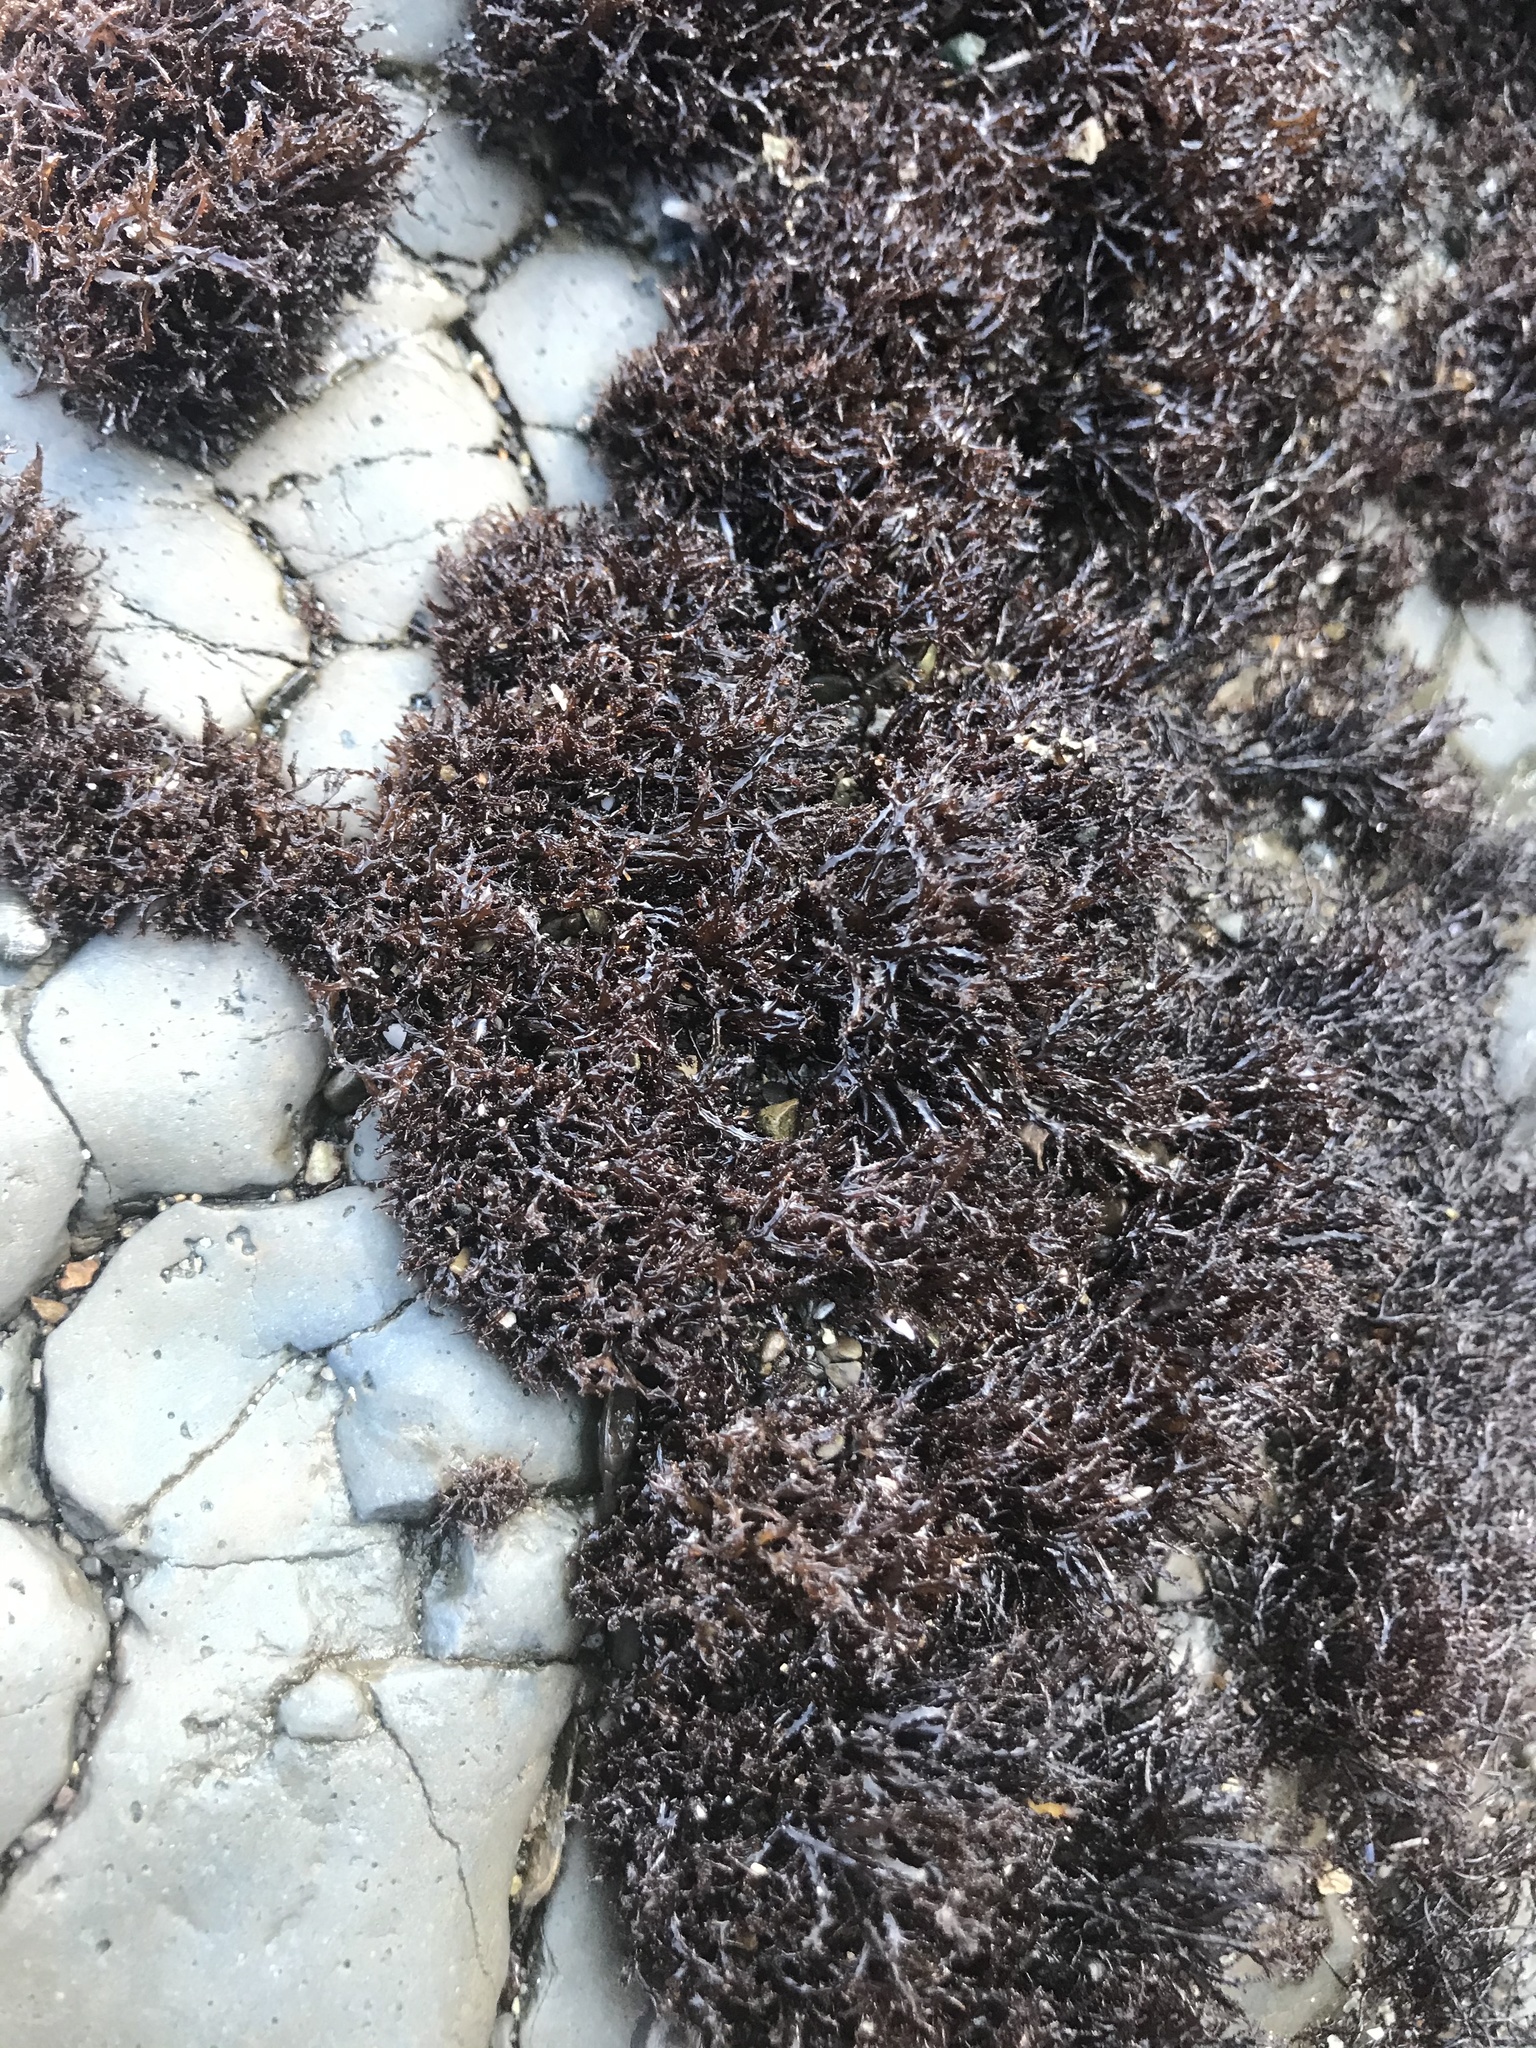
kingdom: Plantae
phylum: Rhodophyta
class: Florideophyceae
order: Gigartinales
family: Endocladiaceae
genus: Endocladia
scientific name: Endocladia muricata
